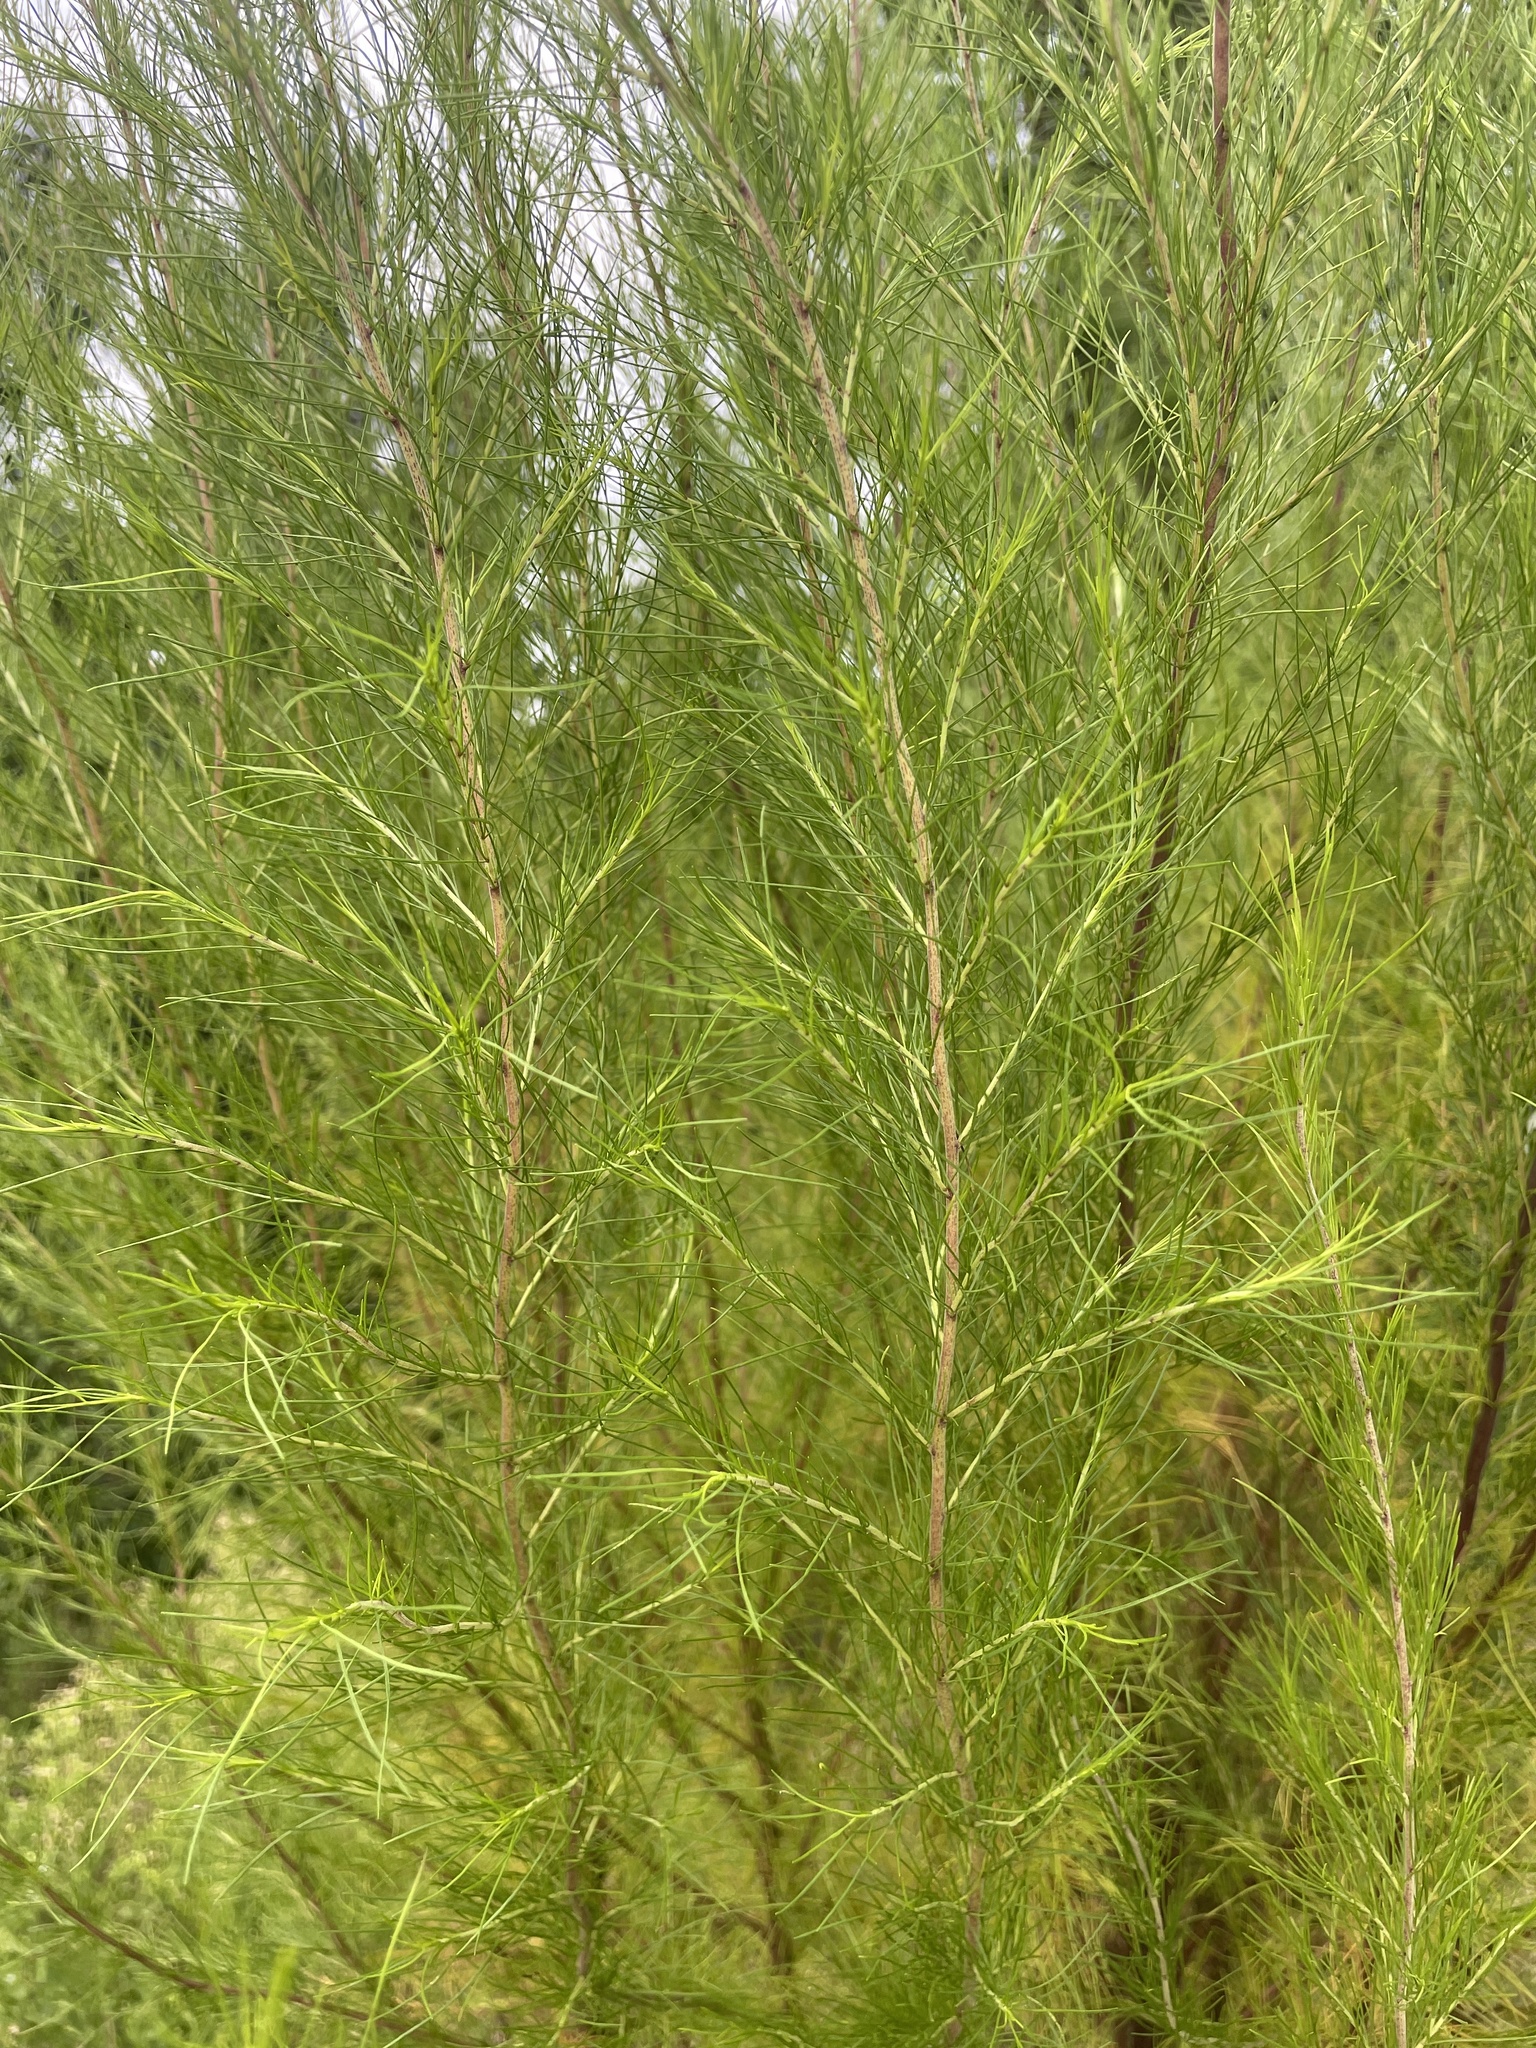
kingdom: Plantae
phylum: Tracheophyta
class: Magnoliopsida
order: Asterales
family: Asteraceae
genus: Eupatorium
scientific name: Eupatorium capillifolium
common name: Dog-fennel
